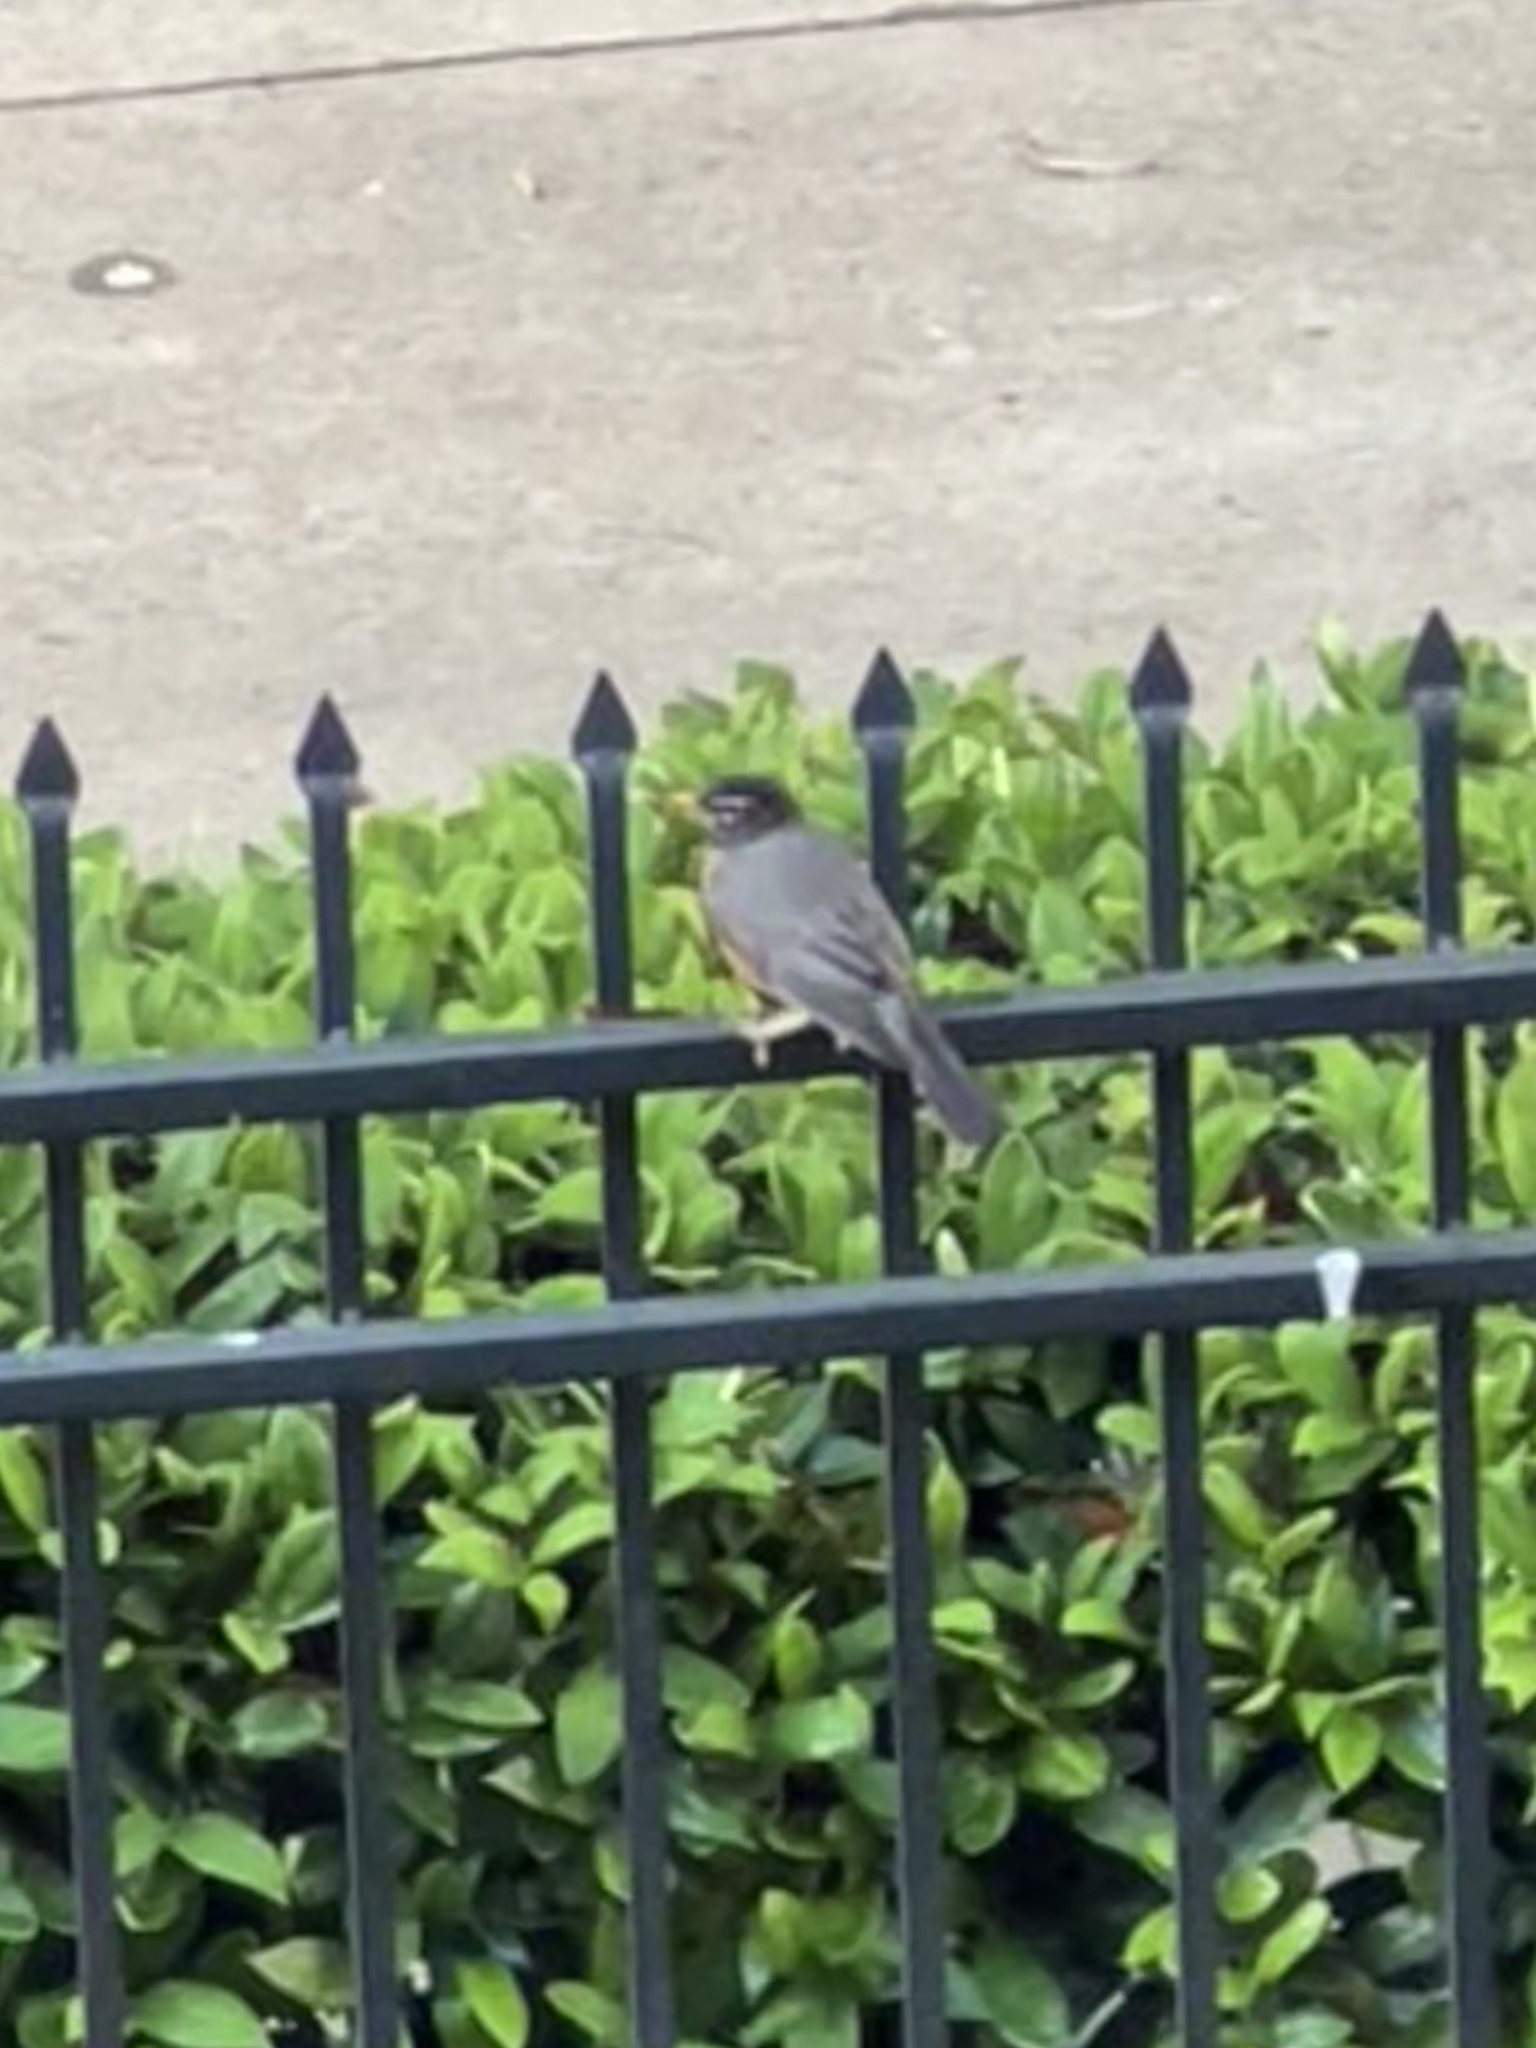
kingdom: Animalia
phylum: Chordata
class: Aves
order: Passeriformes
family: Turdidae
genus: Turdus
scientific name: Turdus migratorius
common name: American robin
